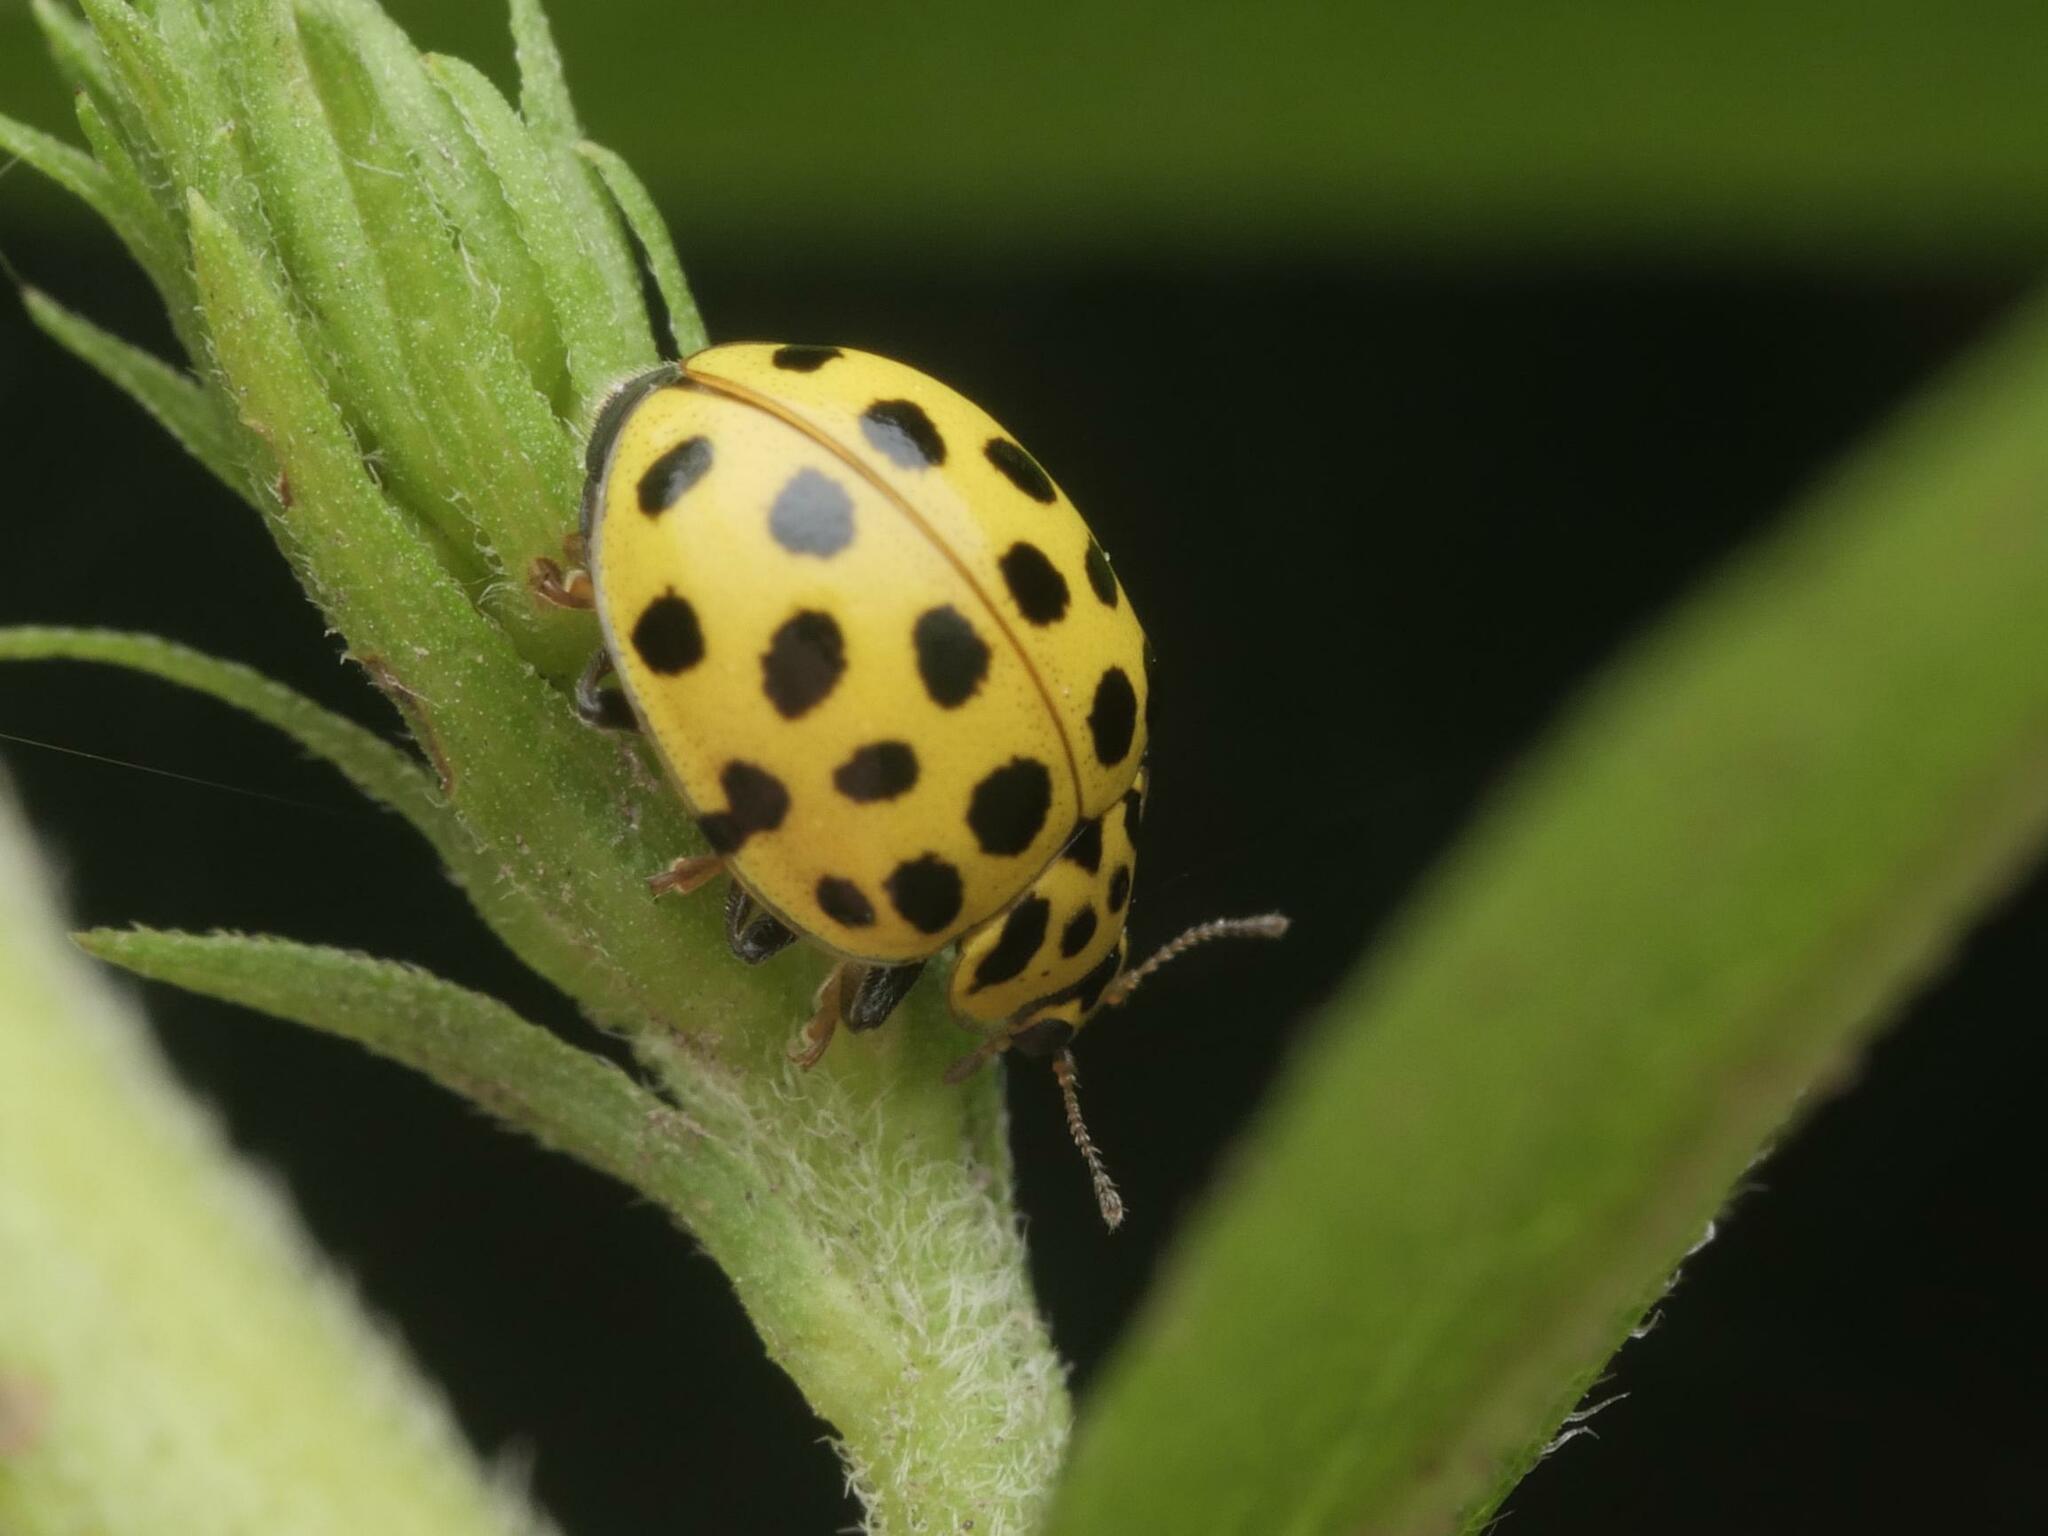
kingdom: Animalia
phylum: Arthropoda
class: Insecta
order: Coleoptera
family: Coccinellidae
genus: Psyllobora
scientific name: Psyllobora vigintiduopunctata
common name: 22-spot ladybird
